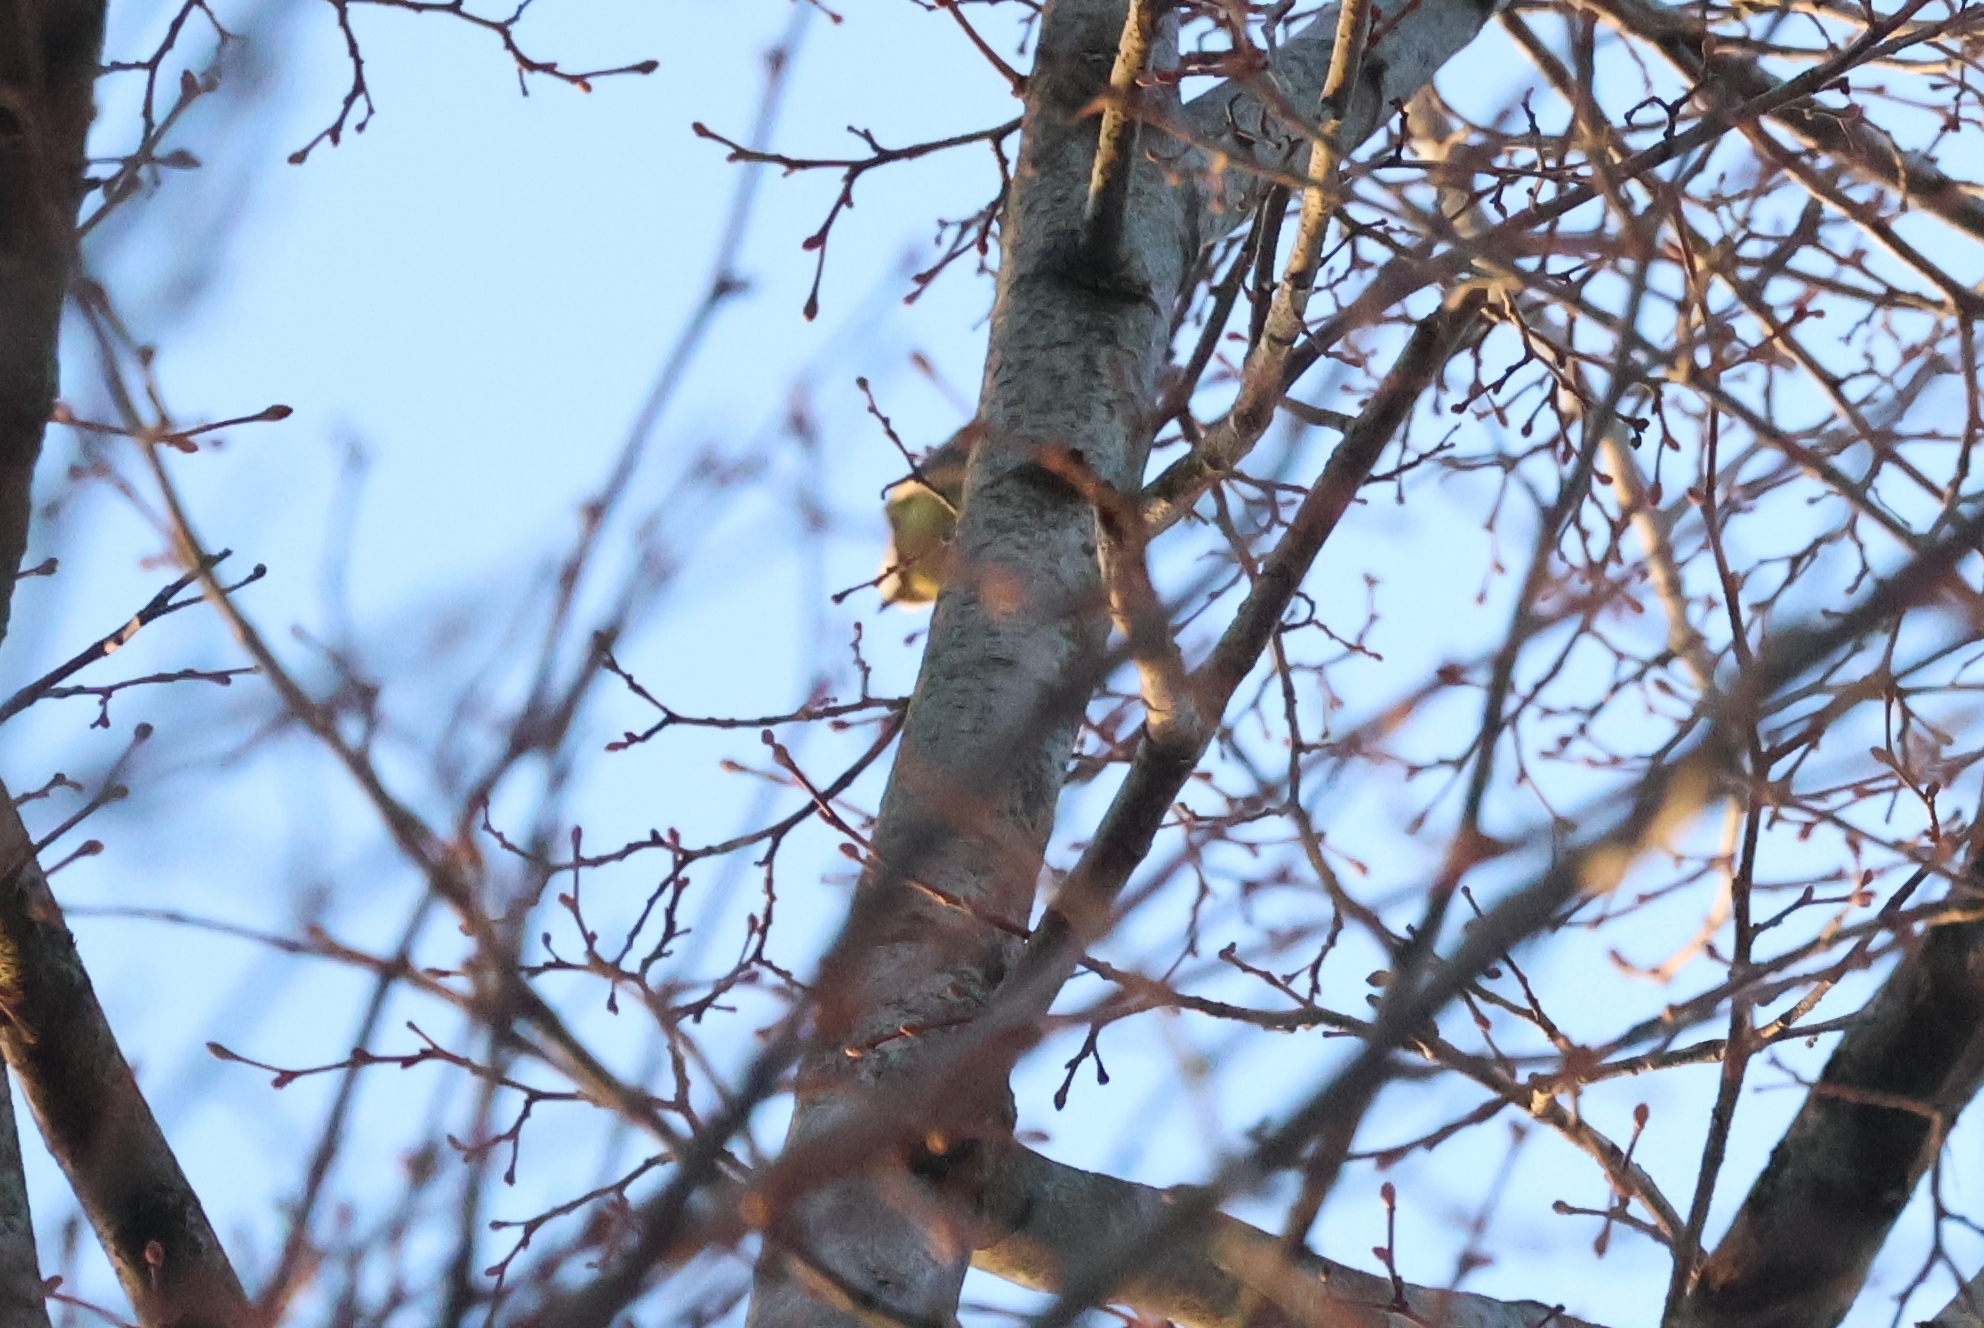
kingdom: Animalia
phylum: Chordata
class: Aves
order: Passeriformes
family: Paridae
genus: Cyanistes
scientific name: Cyanistes caeruleus
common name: Eurasian blue tit
